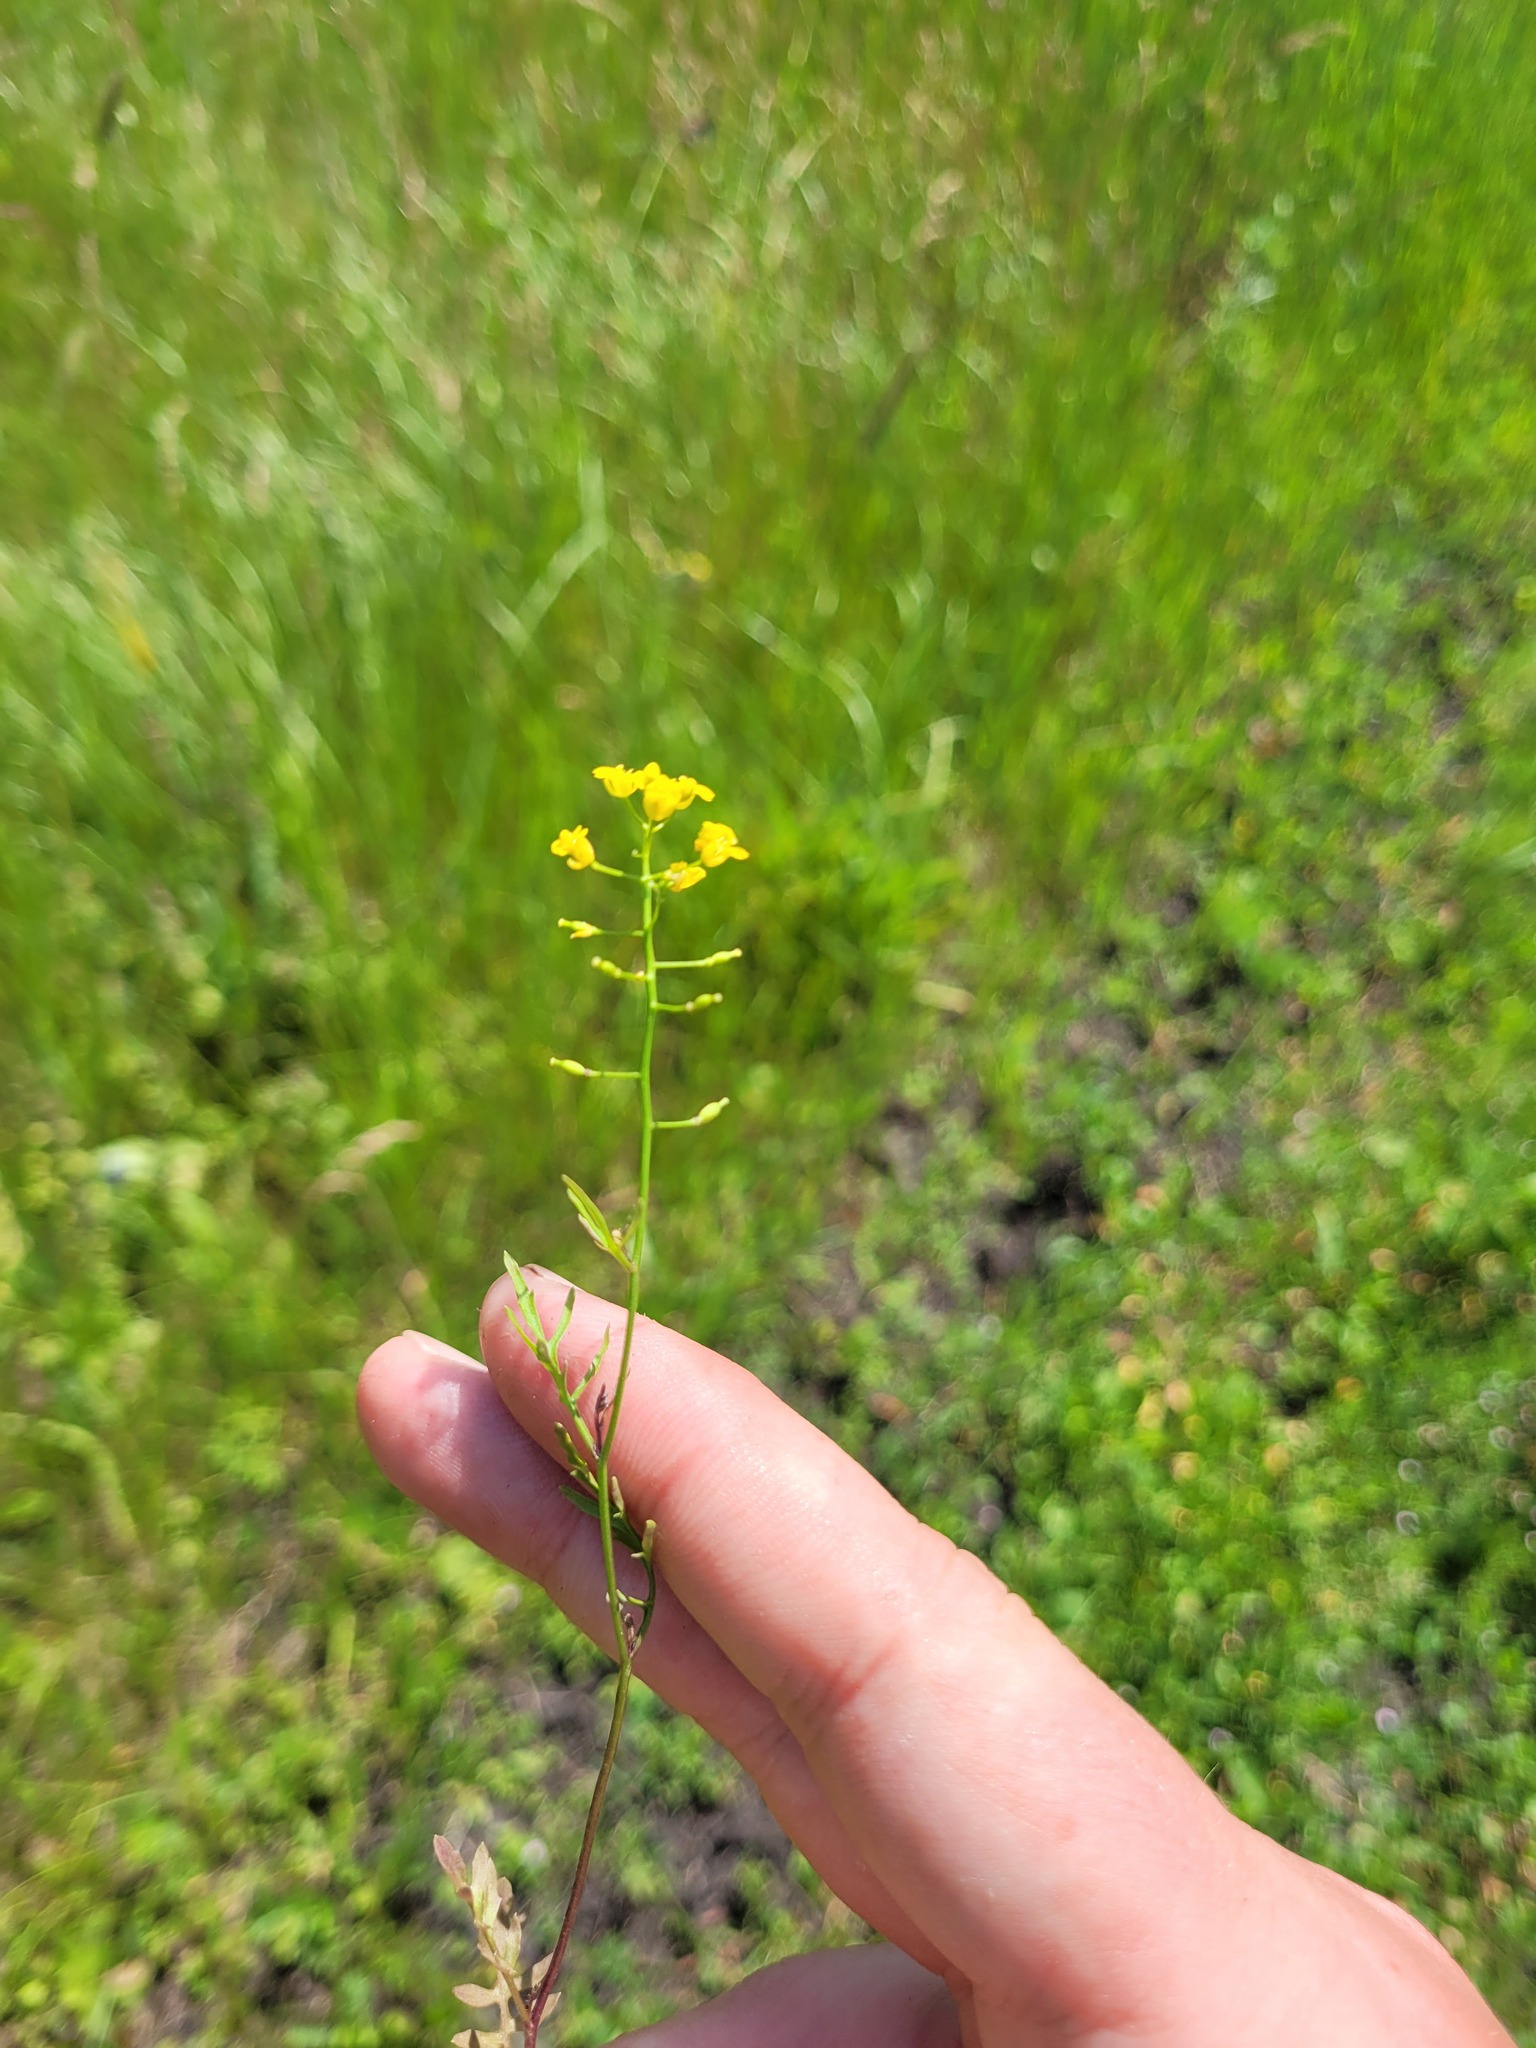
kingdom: Plantae
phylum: Tracheophyta
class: Magnoliopsida
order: Brassicales
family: Brassicaceae
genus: Rorippa
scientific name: Rorippa brachycarpa
